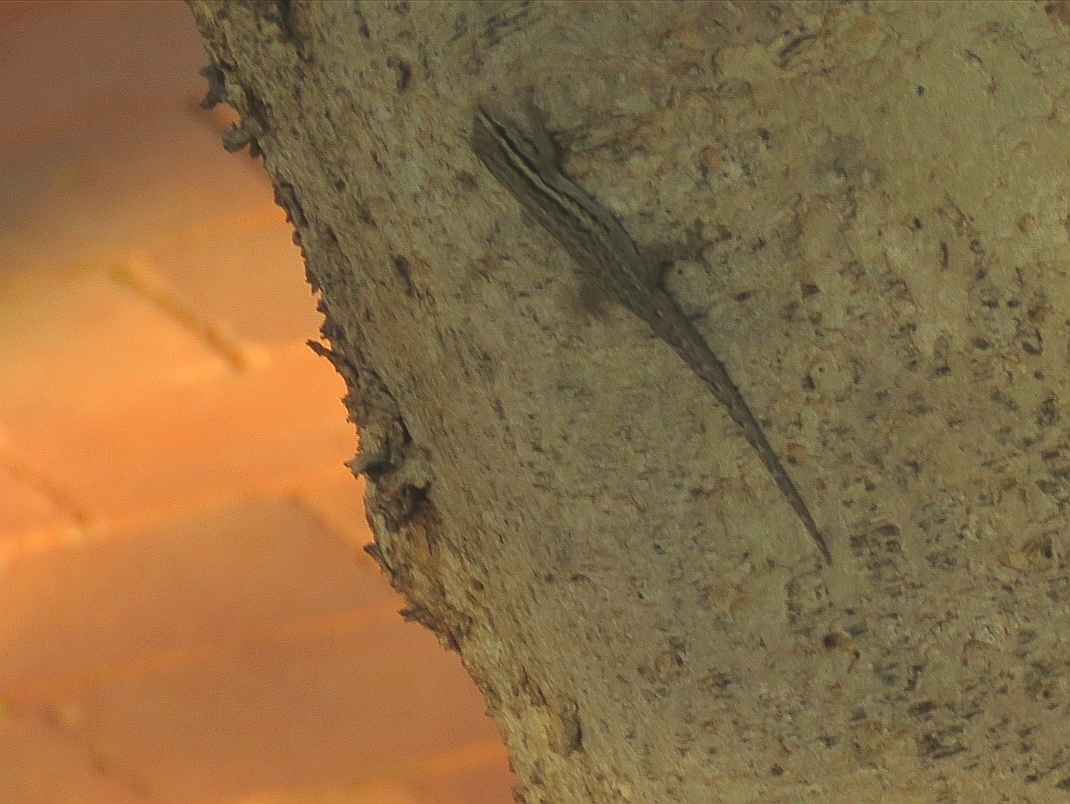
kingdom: Animalia
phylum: Chordata
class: Squamata
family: Gekkonidae
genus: Lygodactylus
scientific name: Lygodactylus capensis
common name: Cape dwarf gecko
